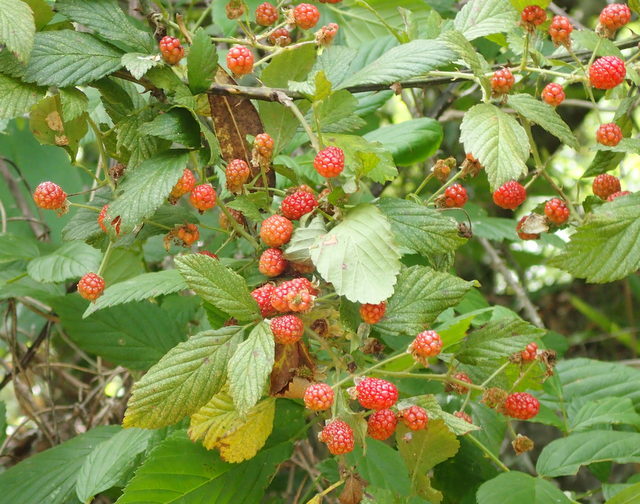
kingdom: Plantae
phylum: Tracheophyta
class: Magnoliopsida
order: Rosales
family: Rosaceae
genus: Rubus
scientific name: Rubus pensilvanicus
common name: Pennsylvania blackberry
